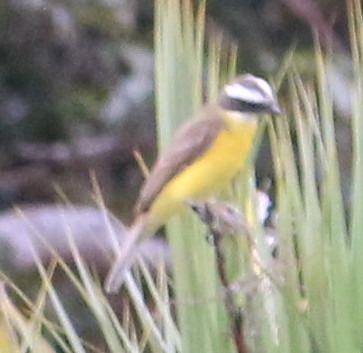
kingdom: Animalia
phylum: Chordata
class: Aves
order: Passeriformes
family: Tyrannidae
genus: Myiozetetes
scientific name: Myiozetetes similis
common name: Social flycatcher
